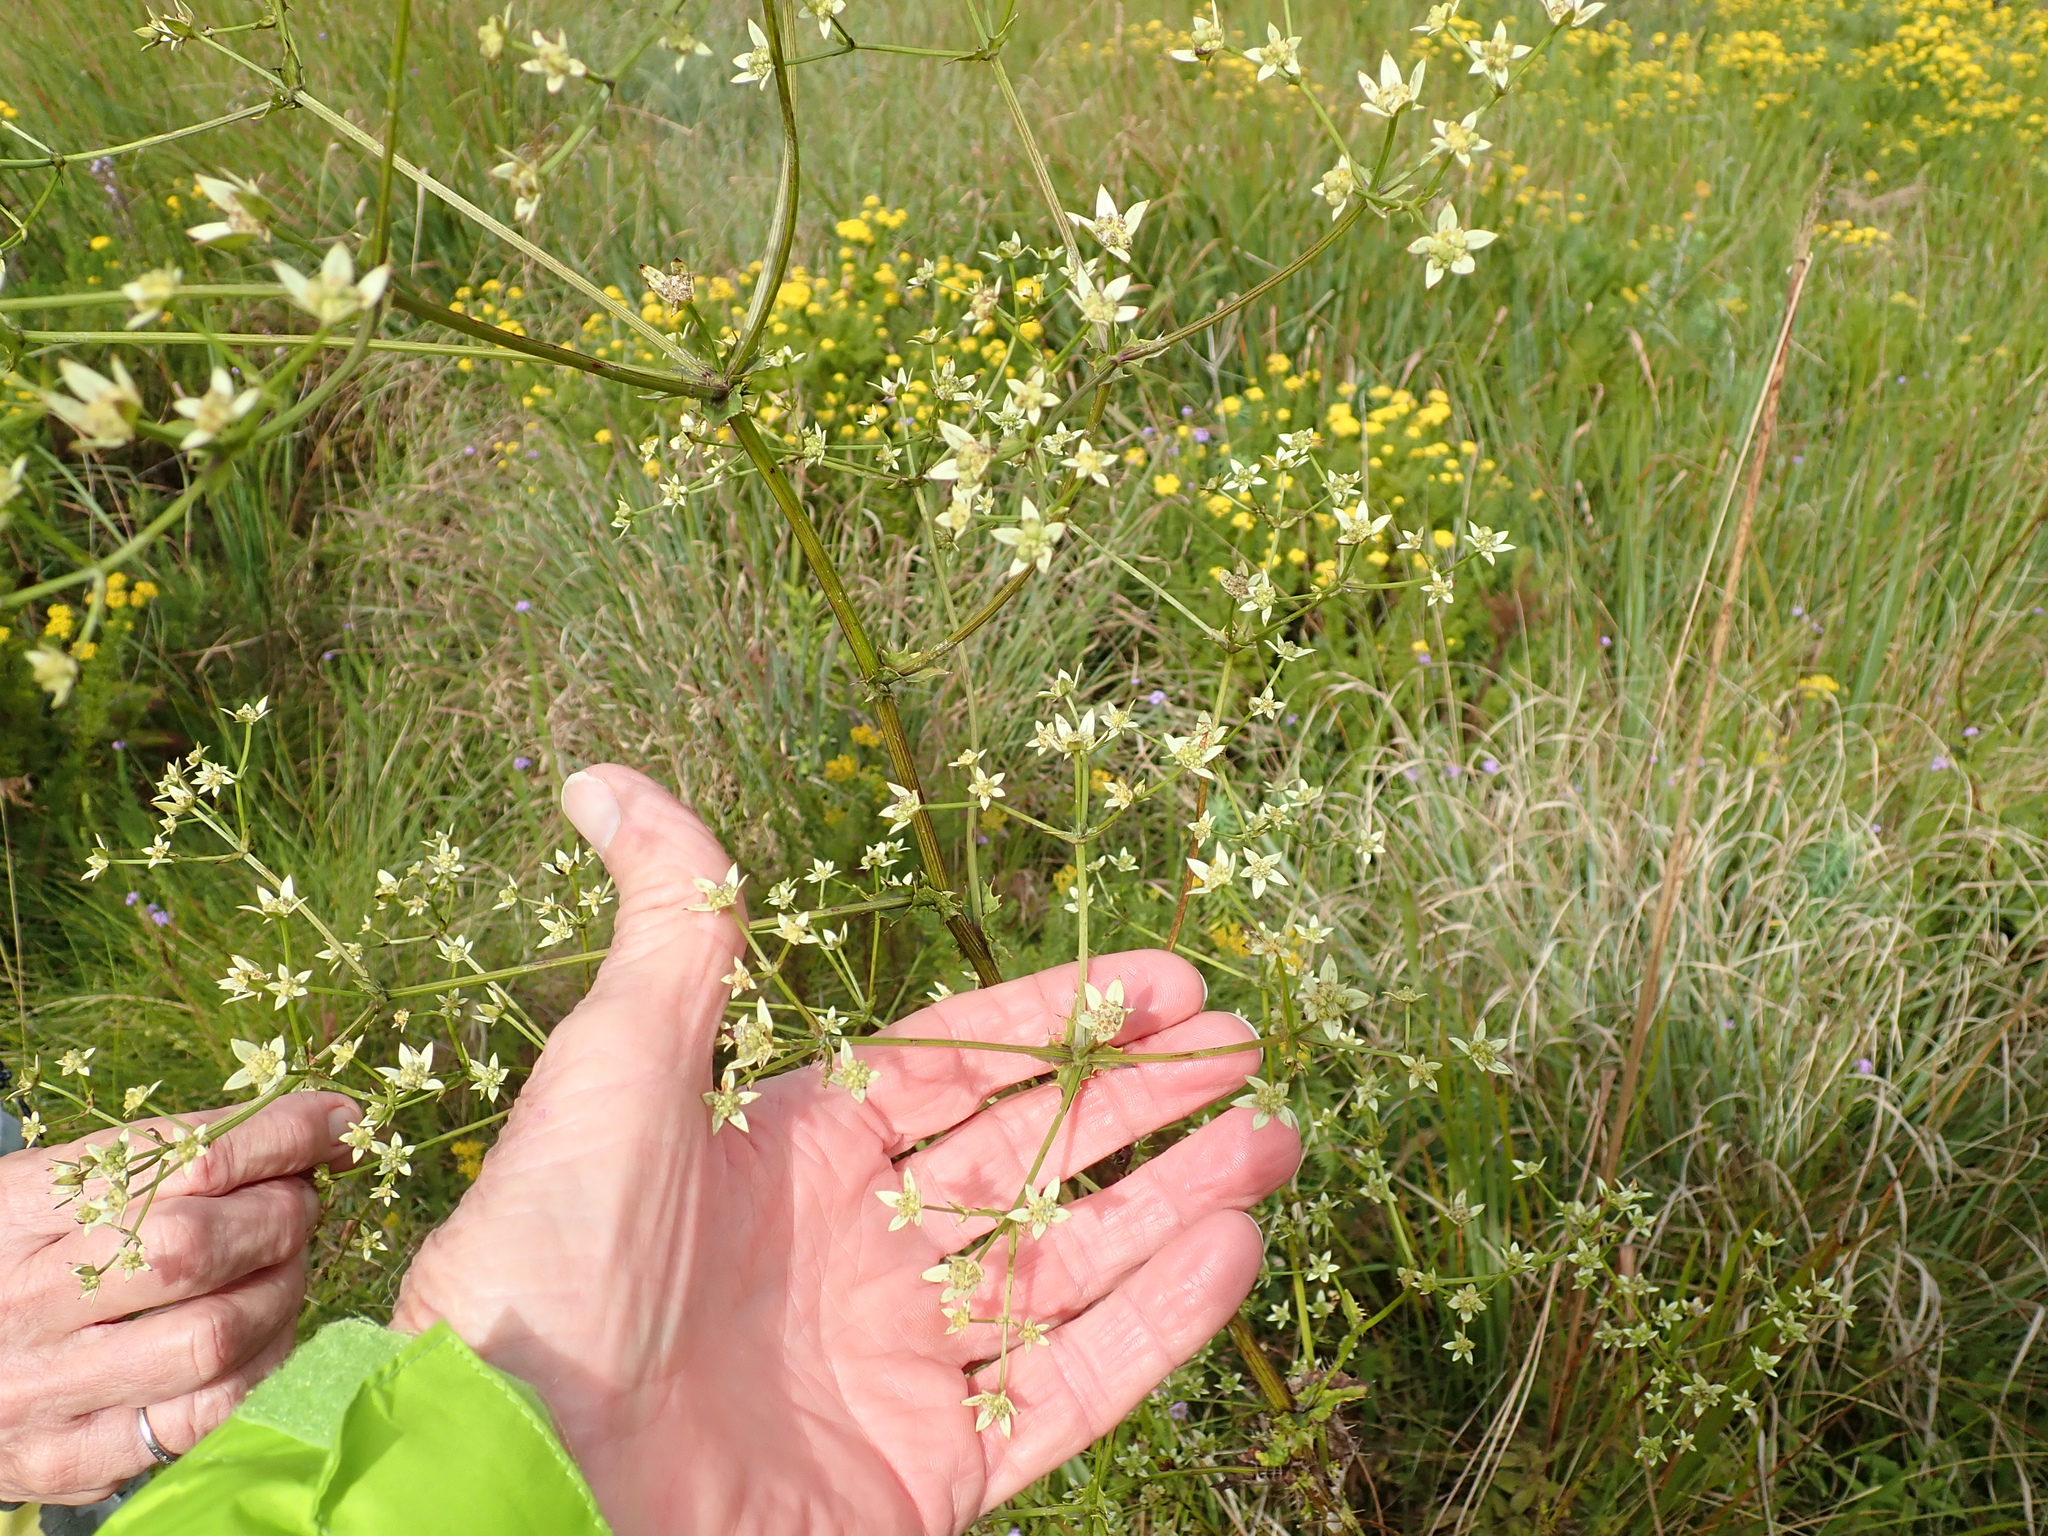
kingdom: Plantae
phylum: Tracheophyta
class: Magnoliopsida
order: Apiales
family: Apiaceae
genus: Alepidea
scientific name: Alepidea amatymbica
